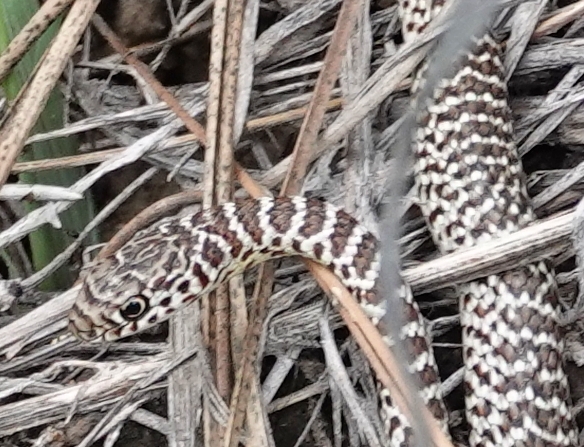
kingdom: Animalia
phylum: Chordata
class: Squamata
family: Colubridae
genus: Coluber
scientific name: Coluber constrictor
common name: Eastern racer
